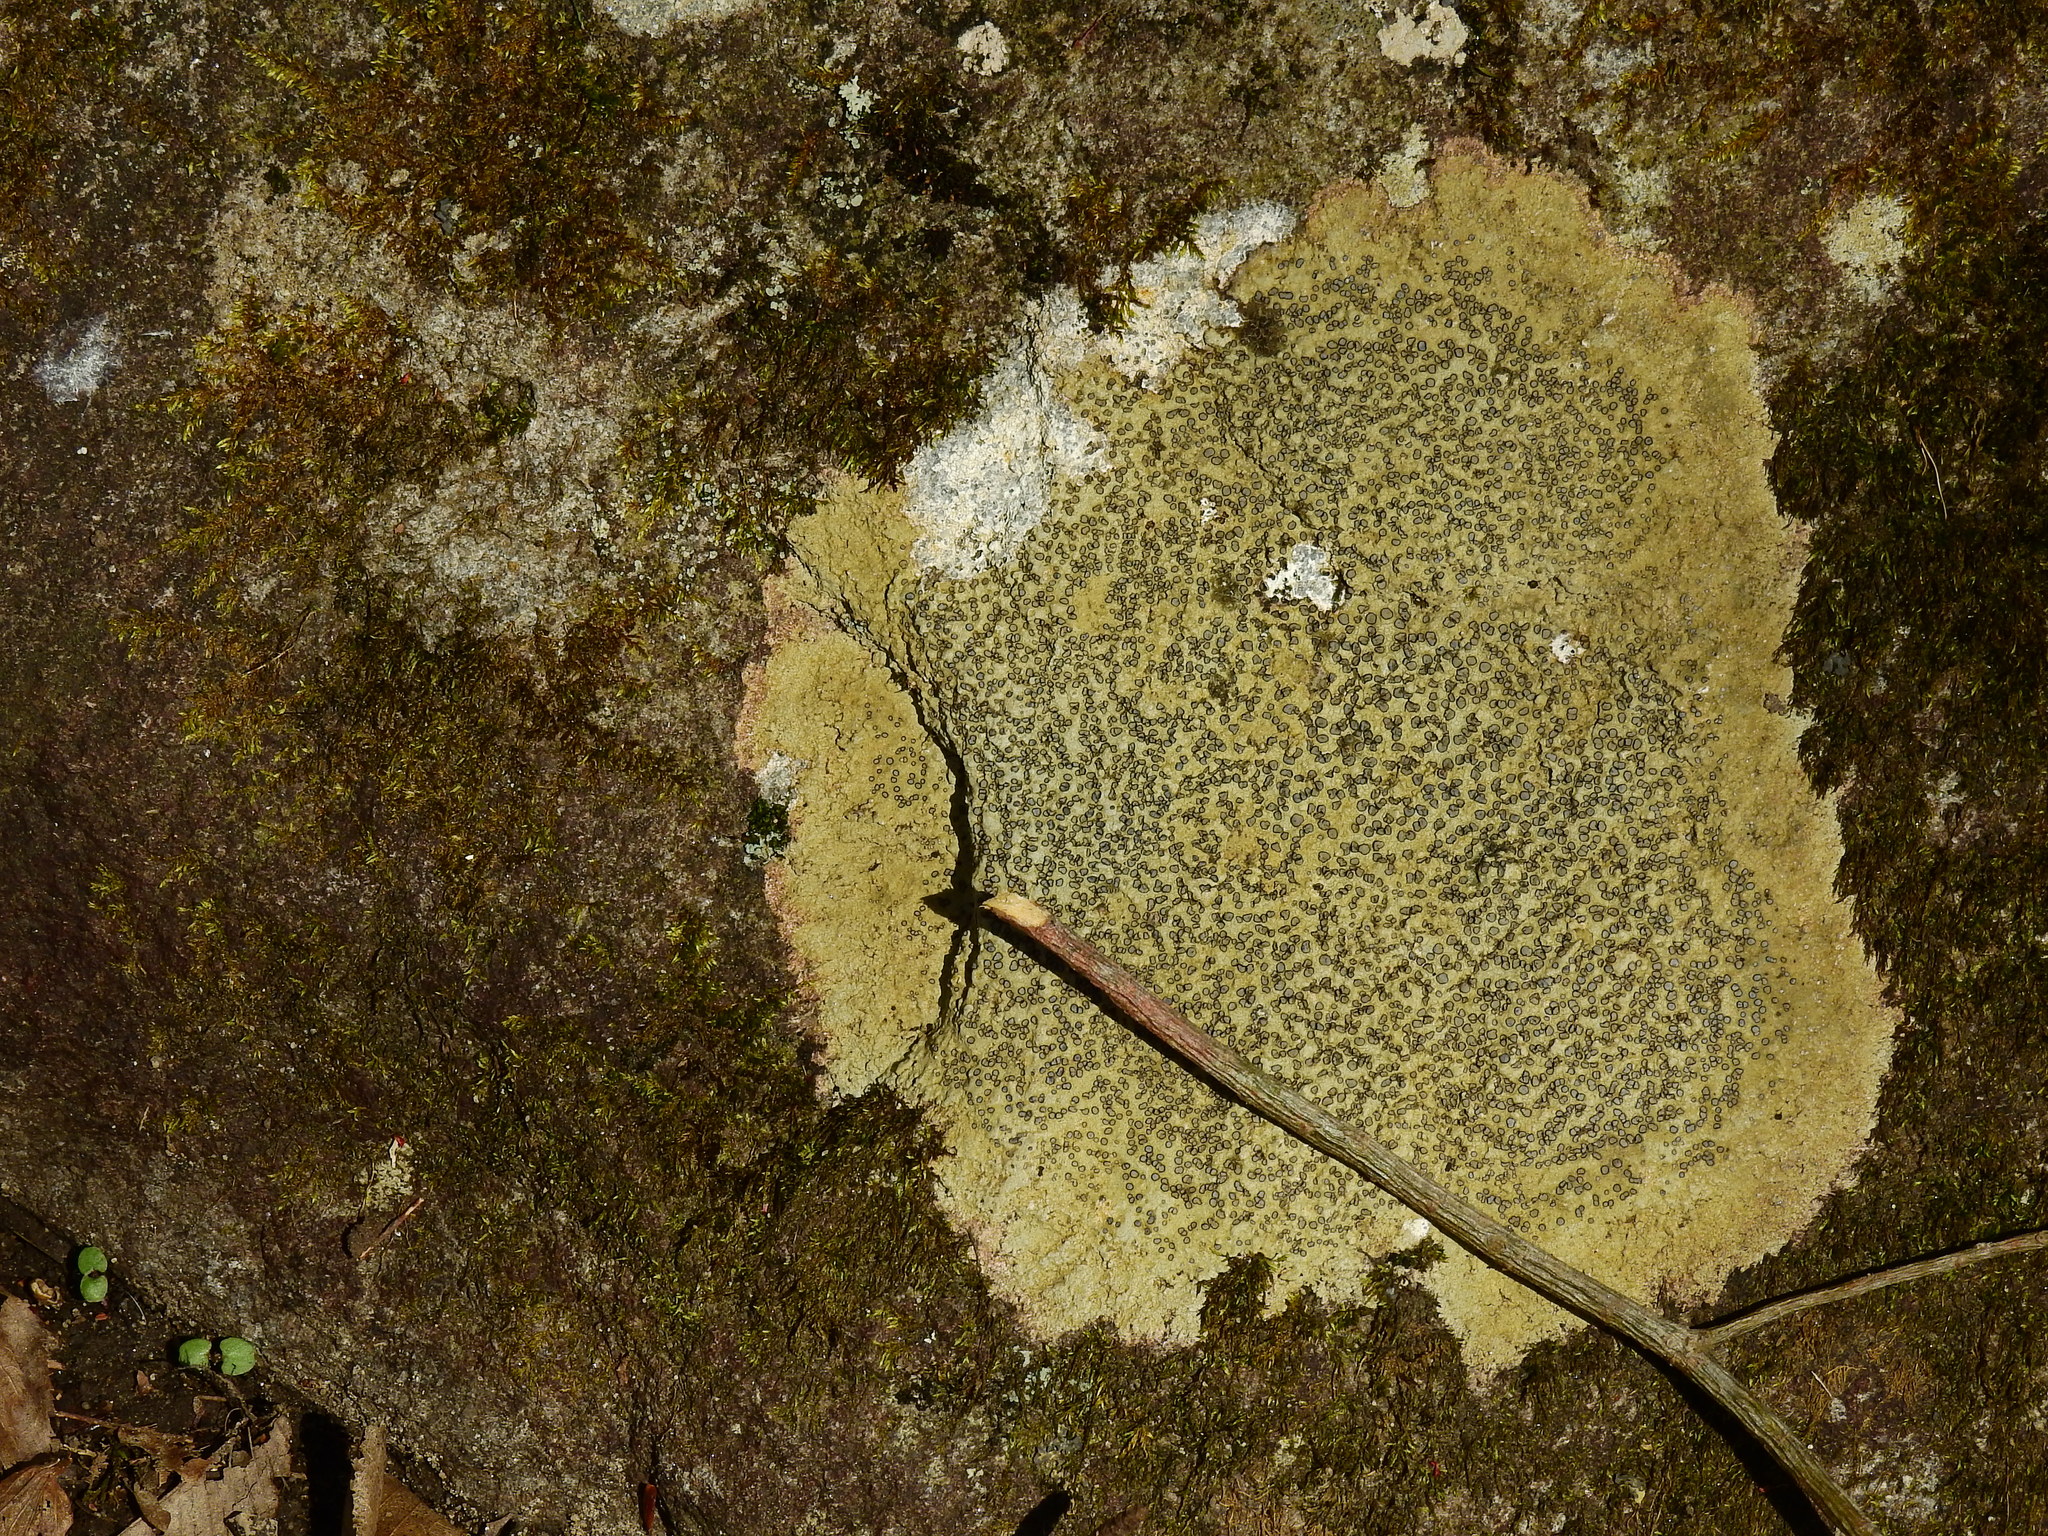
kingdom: Fungi
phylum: Ascomycota
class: Lecanoromycetes
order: Lecideales
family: Lecideaceae
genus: Porpidia
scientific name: Porpidia albocaerulescens
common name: Smokey-eyed boulder lichen
